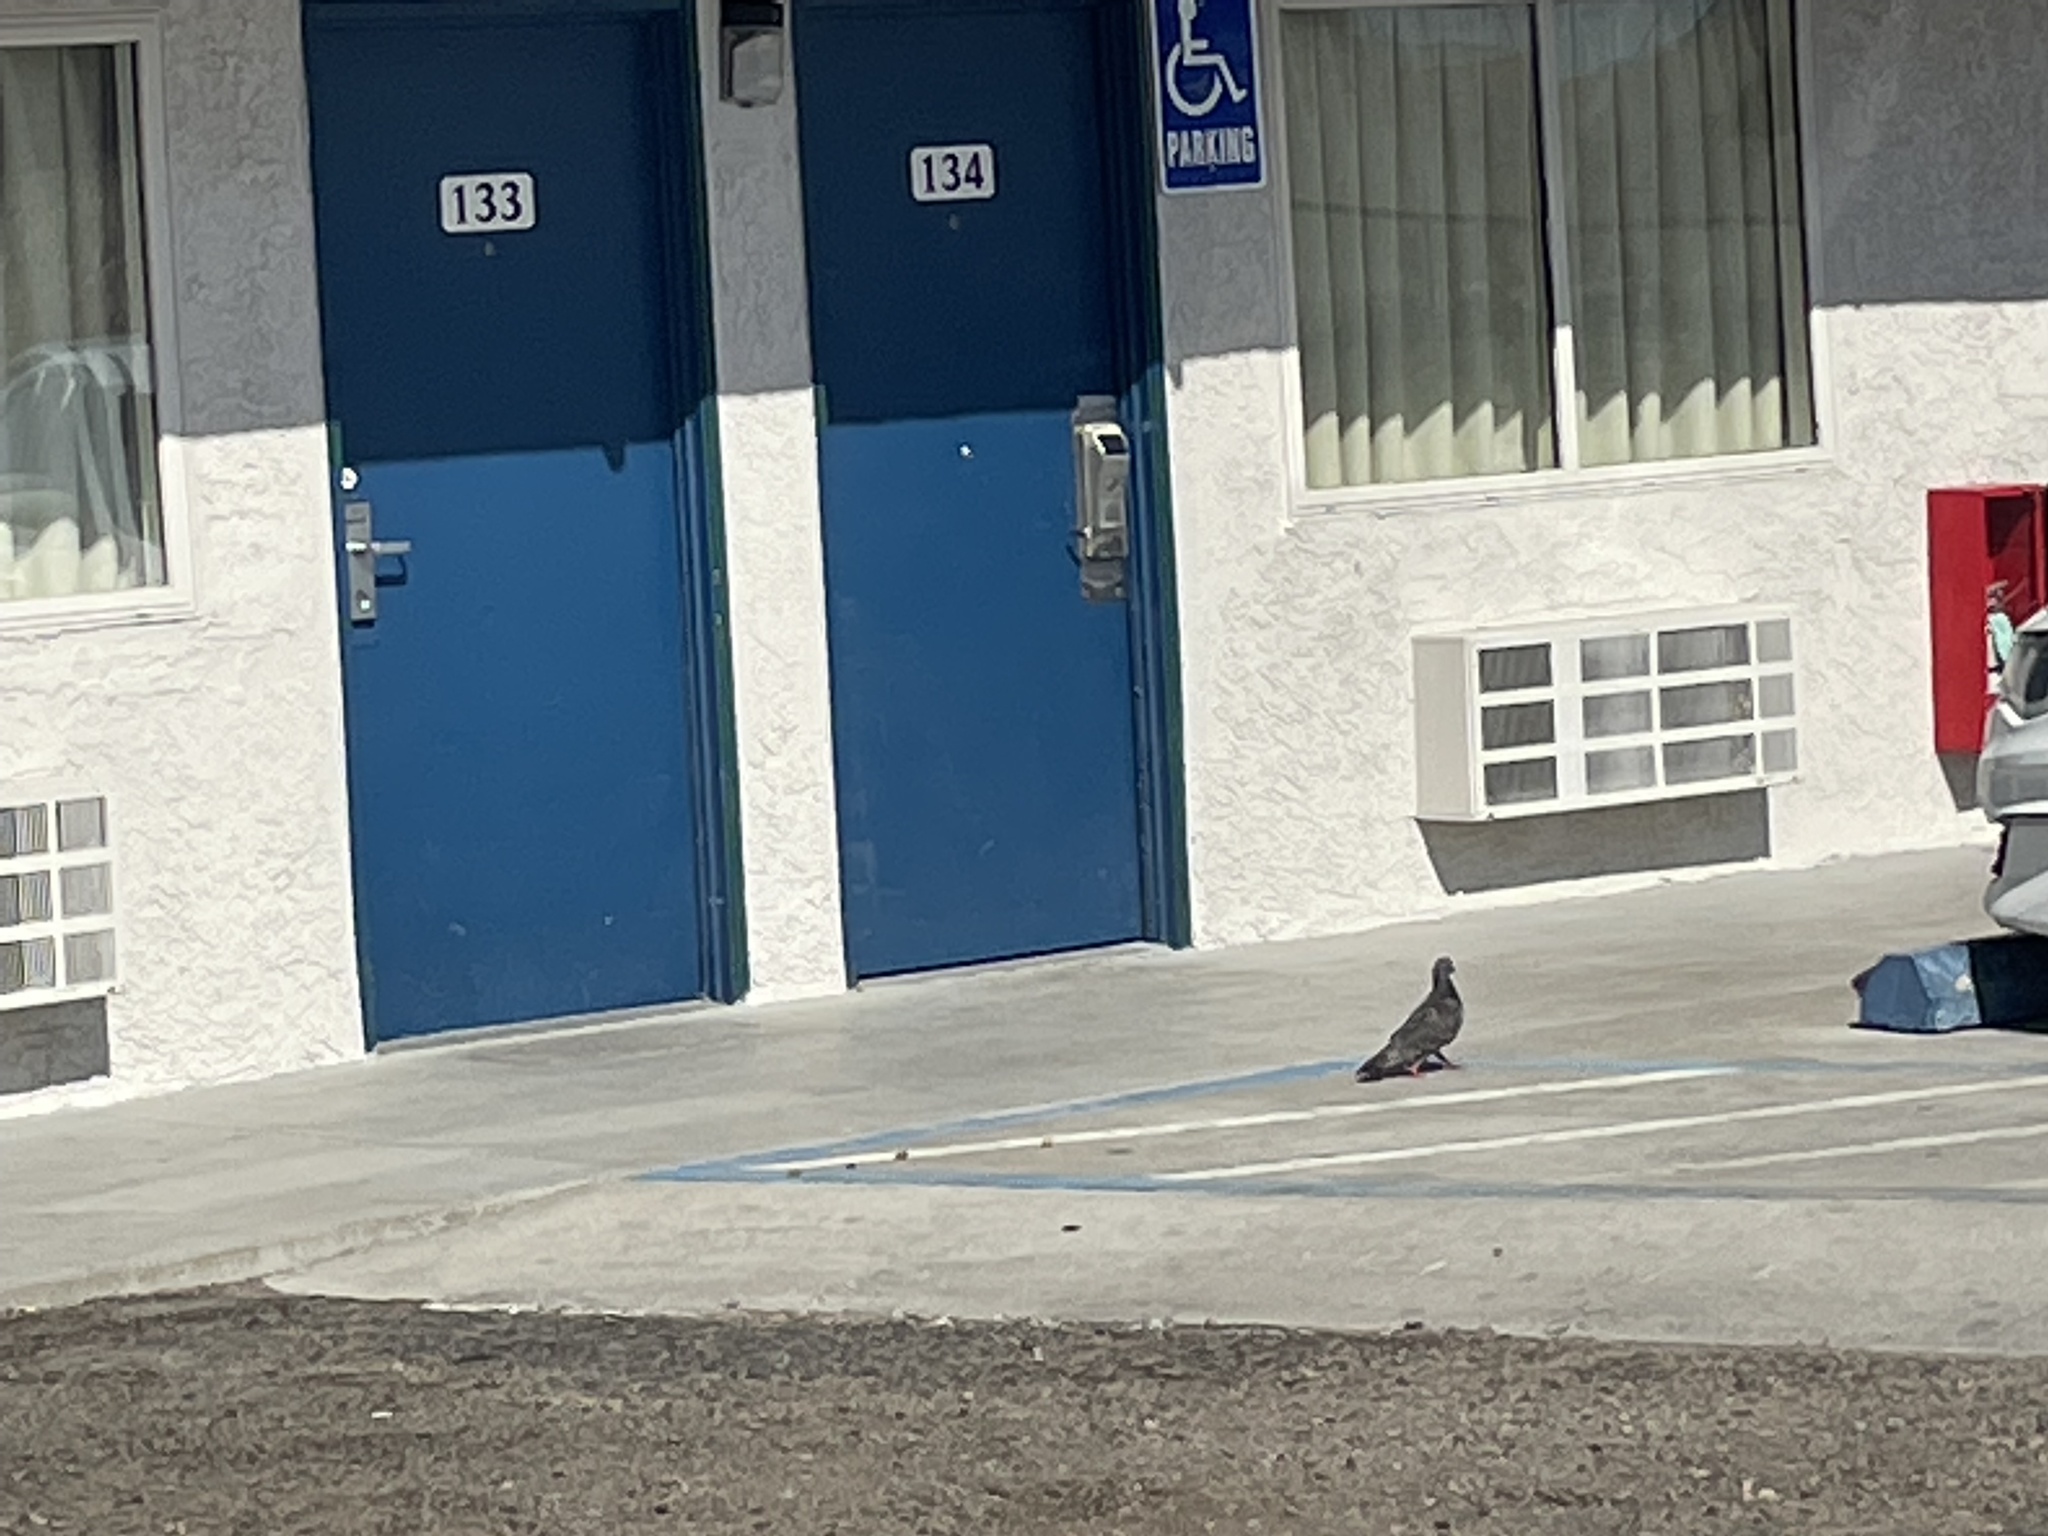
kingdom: Animalia
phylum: Chordata
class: Aves
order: Columbiformes
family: Columbidae
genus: Columba
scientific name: Columba livia
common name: Rock pigeon
